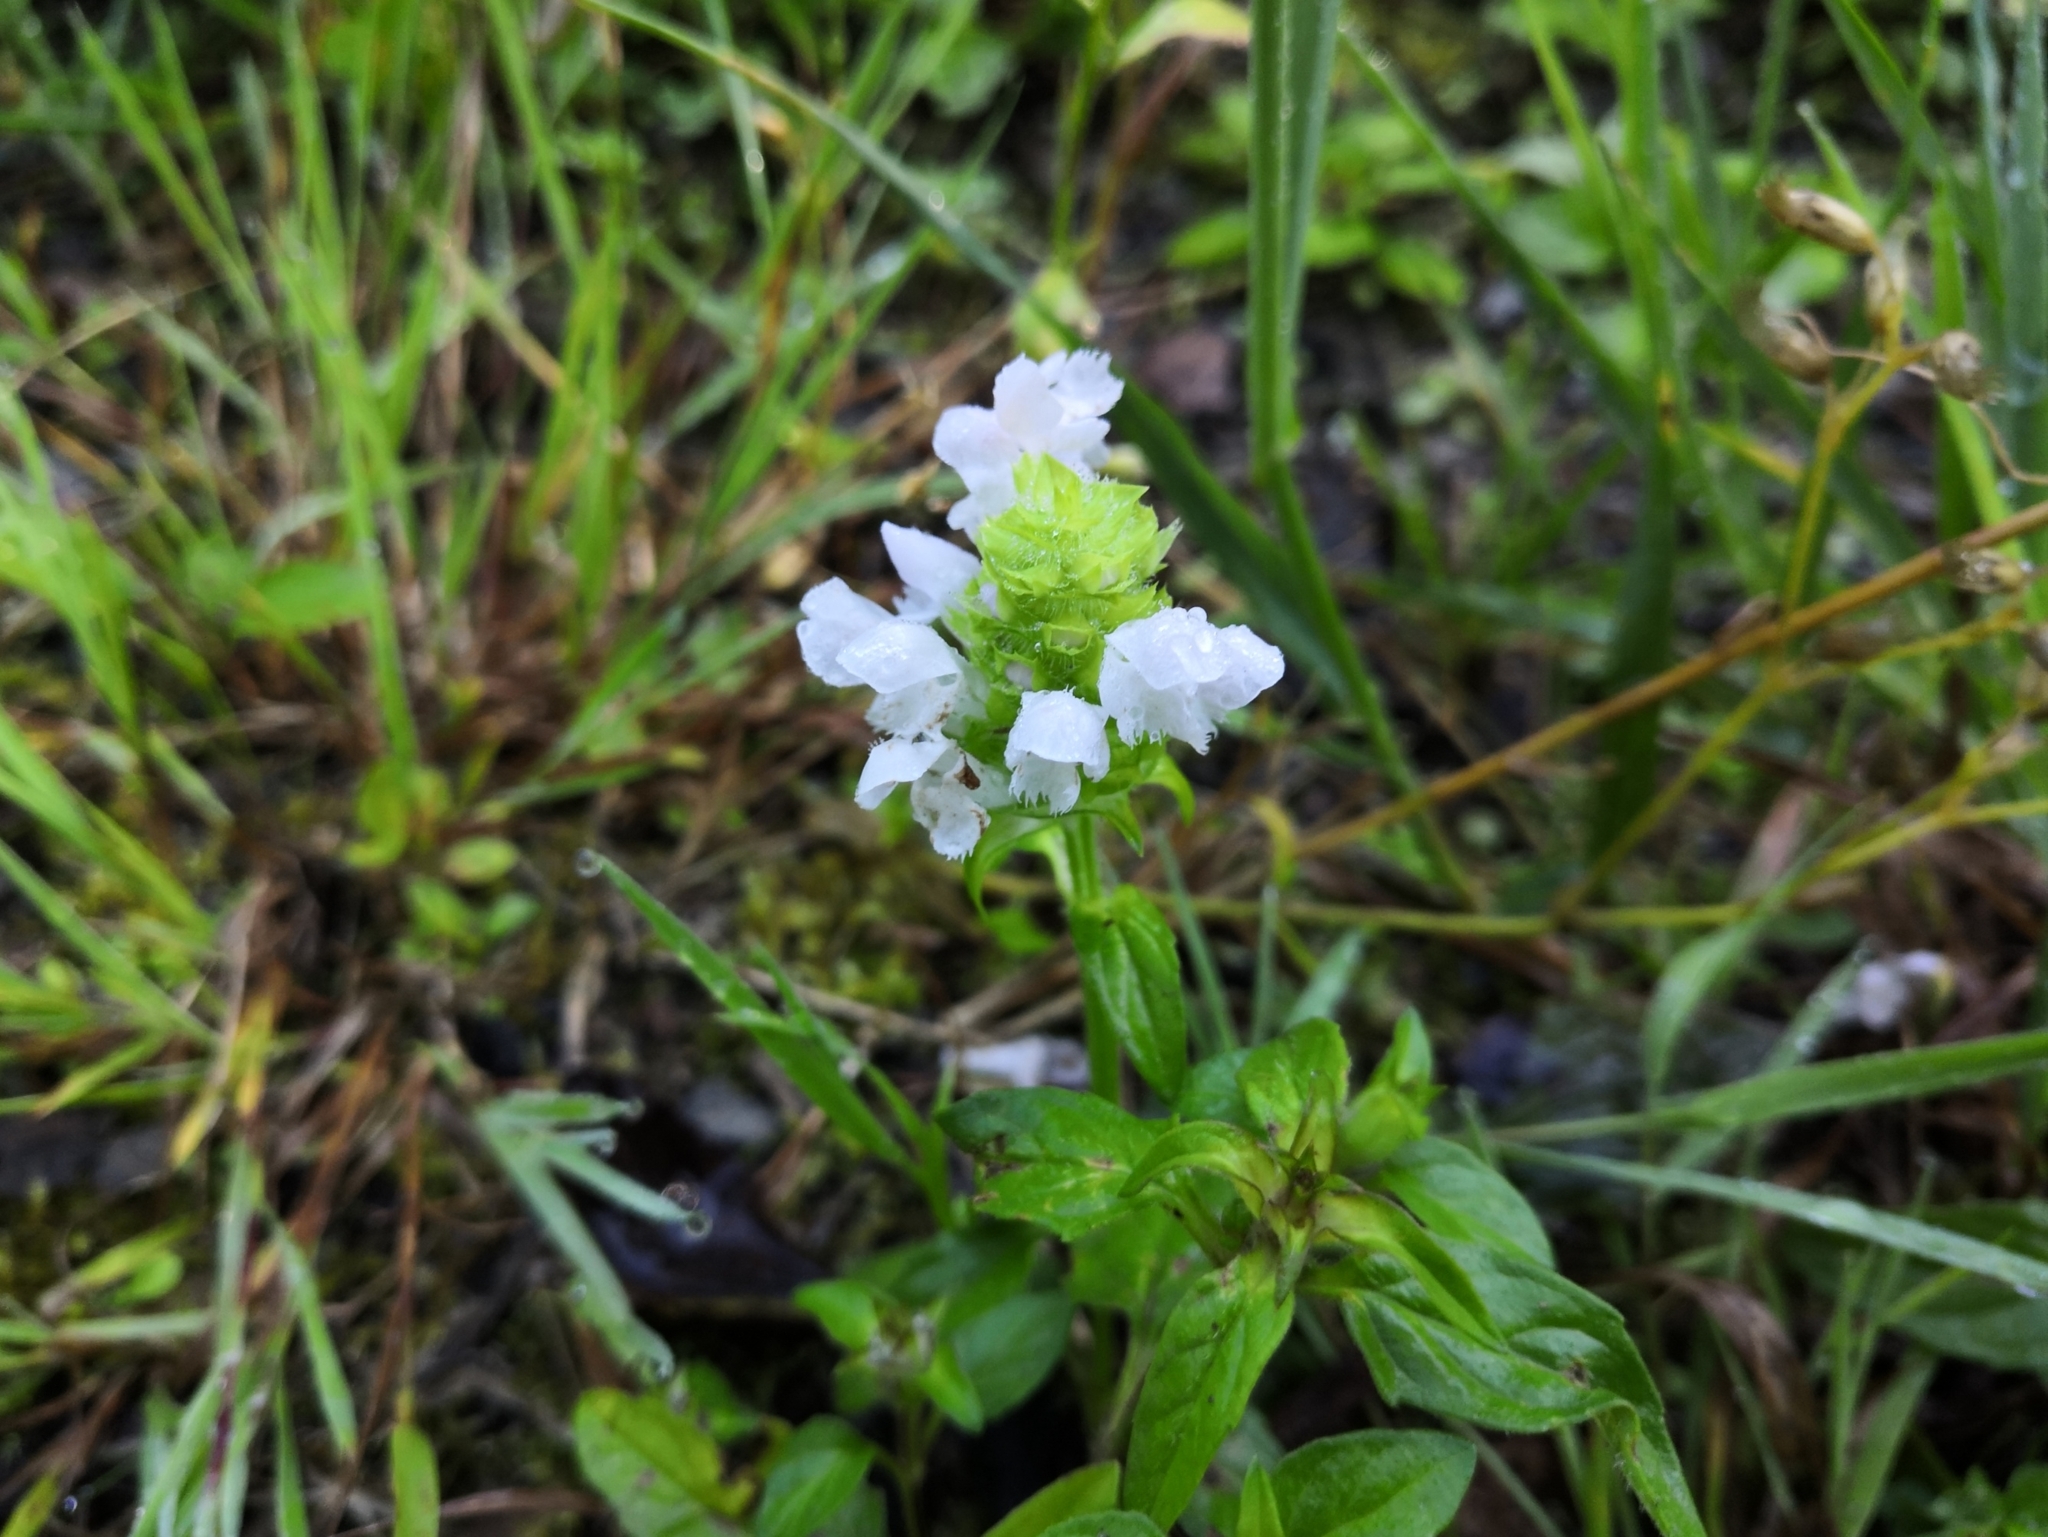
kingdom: Plantae
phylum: Tracheophyta
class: Magnoliopsida
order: Lamiales
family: Lamiaceae
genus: Prunella
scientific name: Prunella vulgaris
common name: Heal-all
